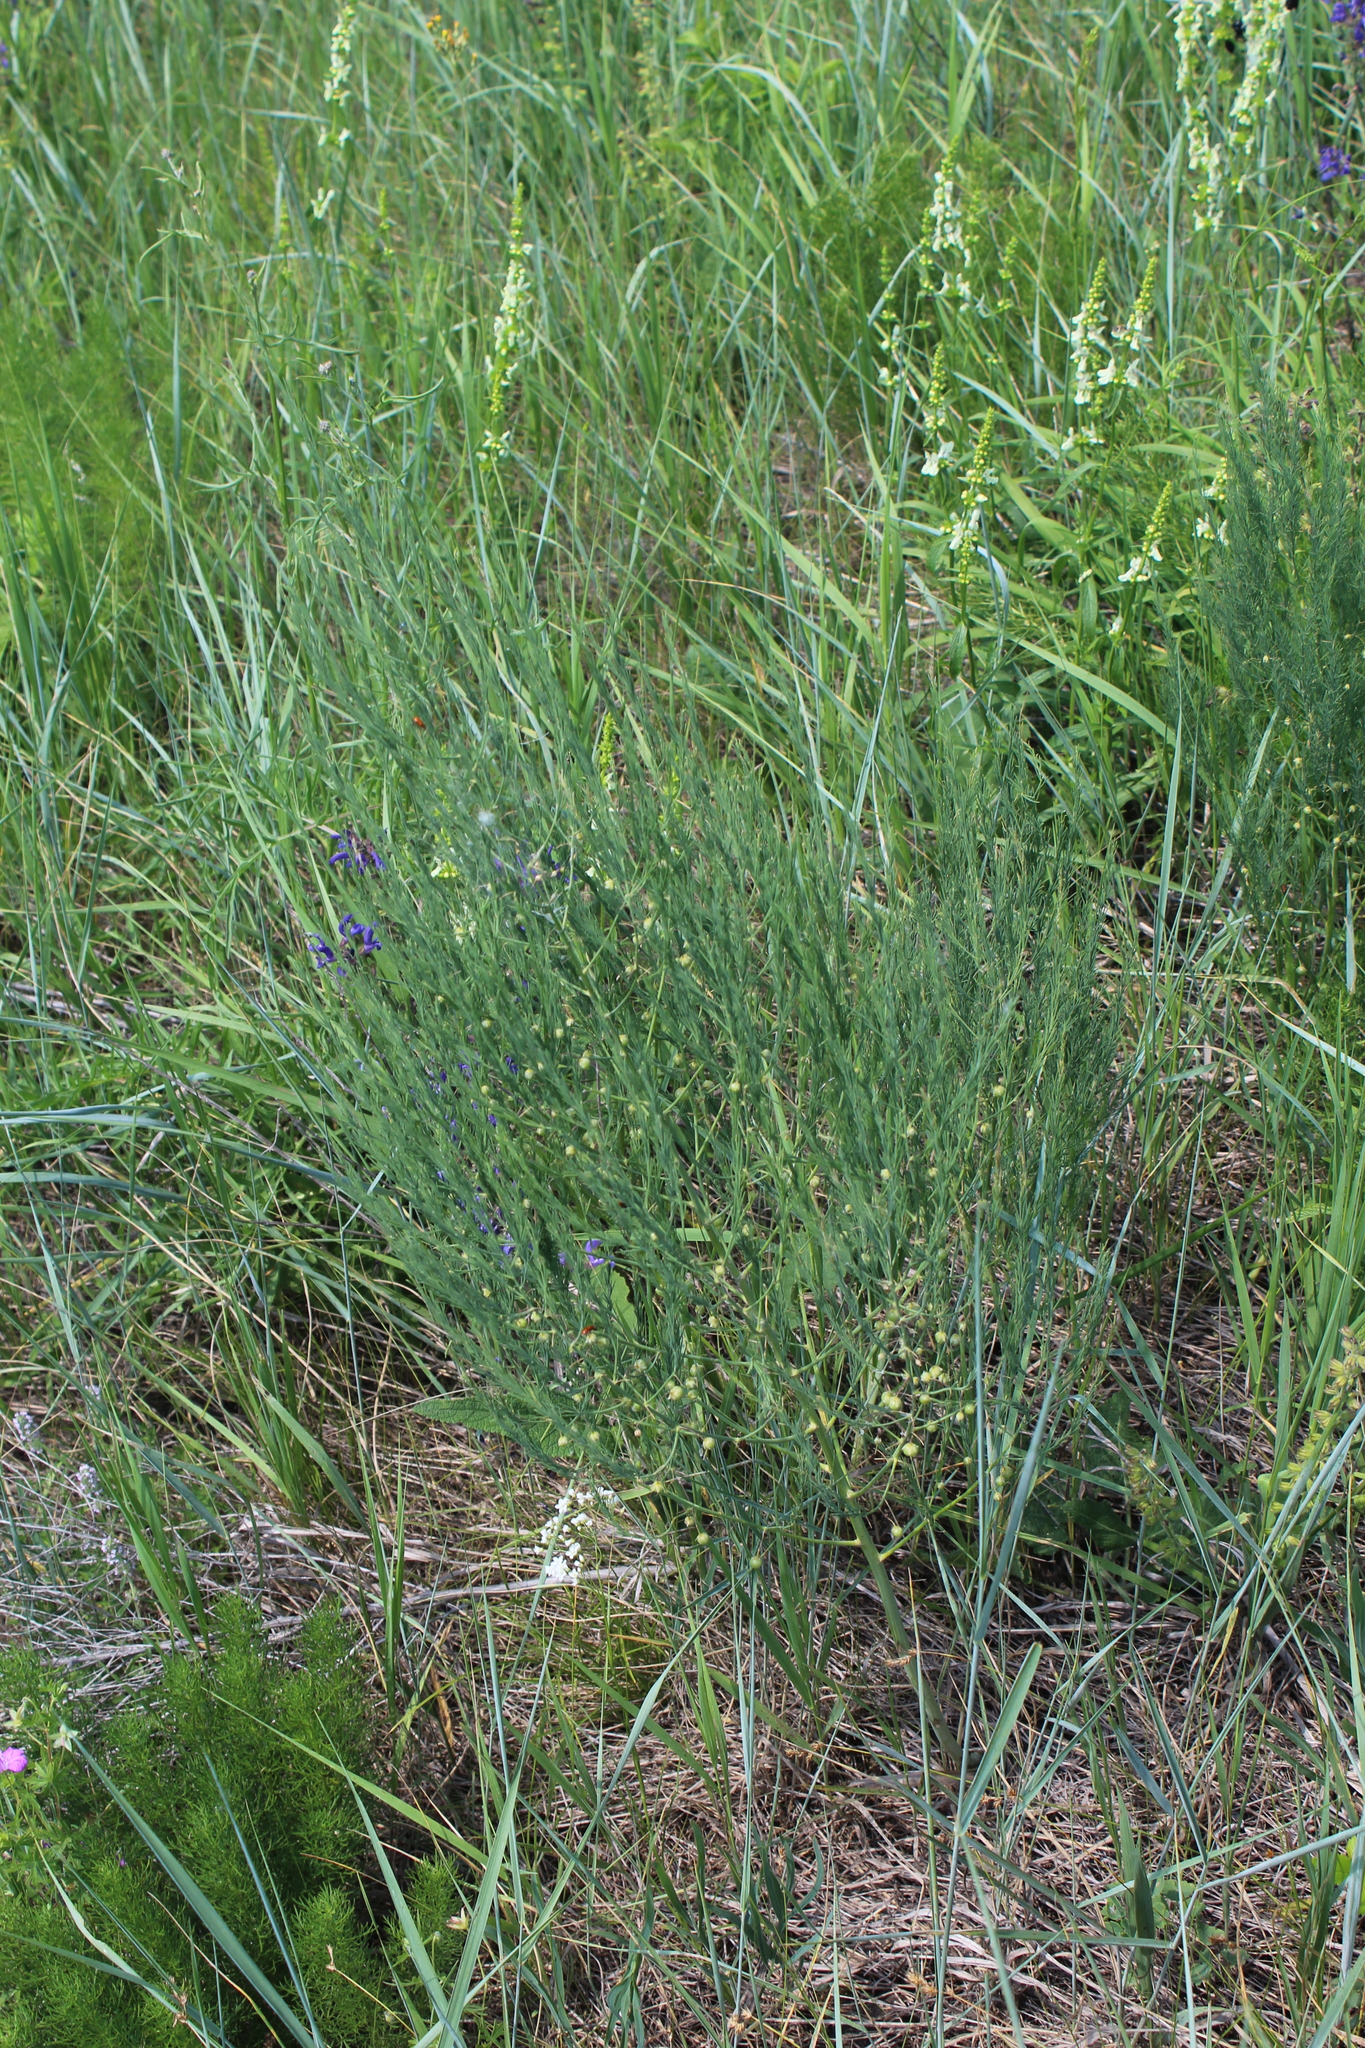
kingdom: Plantae
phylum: Tracheophyta
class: Liliopsida
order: Asparagales
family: Asparagaceae
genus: Asparagus
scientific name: Asparagus officinalis
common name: Garden asparagus
